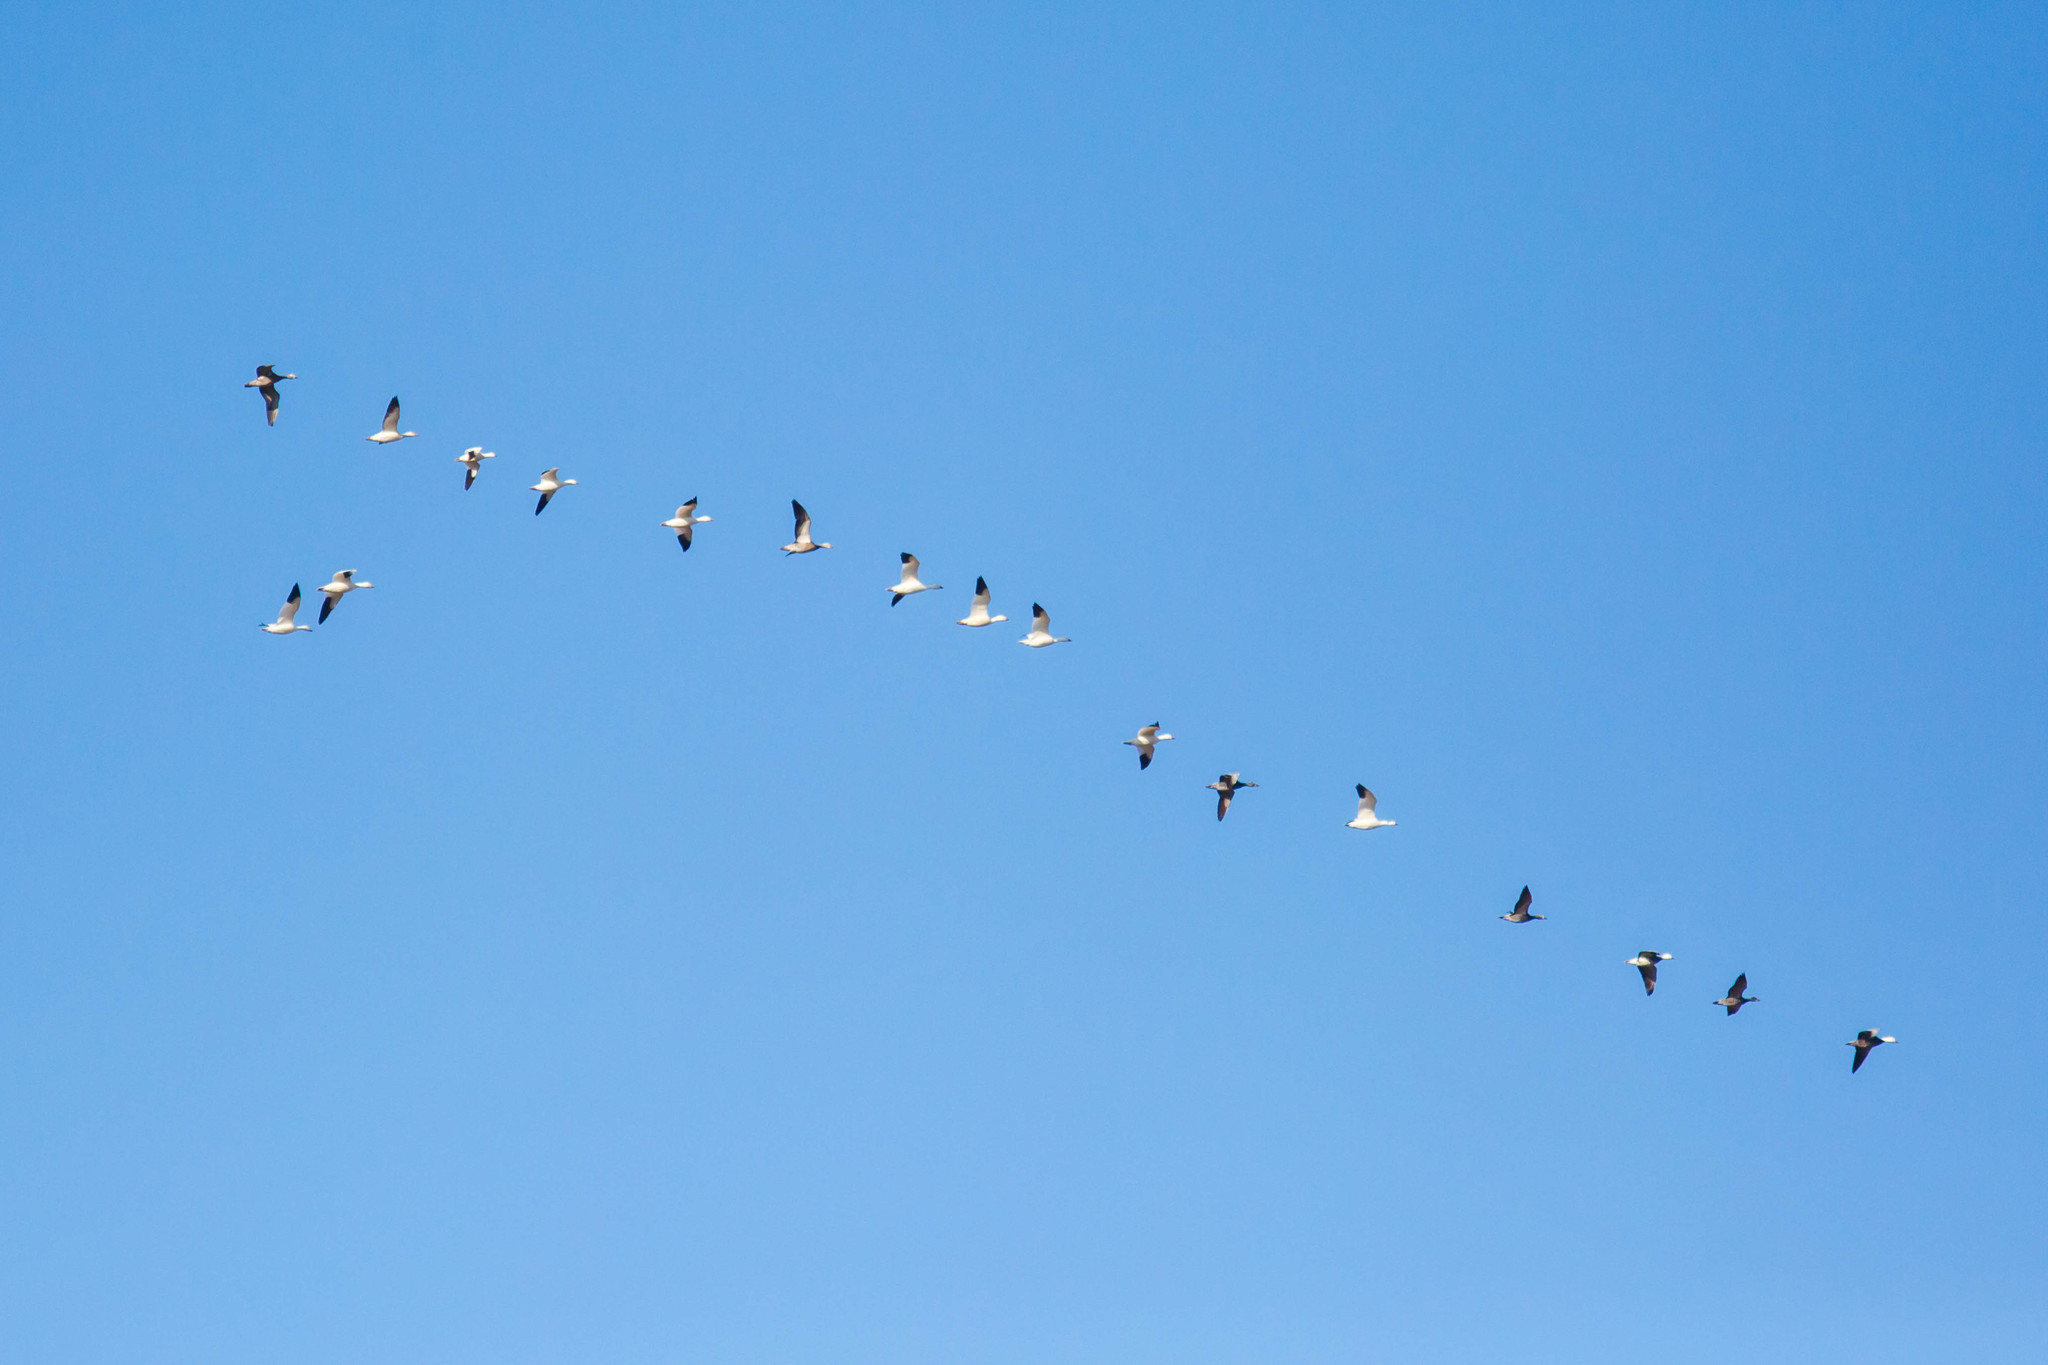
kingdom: Animalia
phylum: Chordata
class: Aves
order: Anseriformes
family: Anatidae
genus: Anser
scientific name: Anser caerulescens
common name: Snow goose
